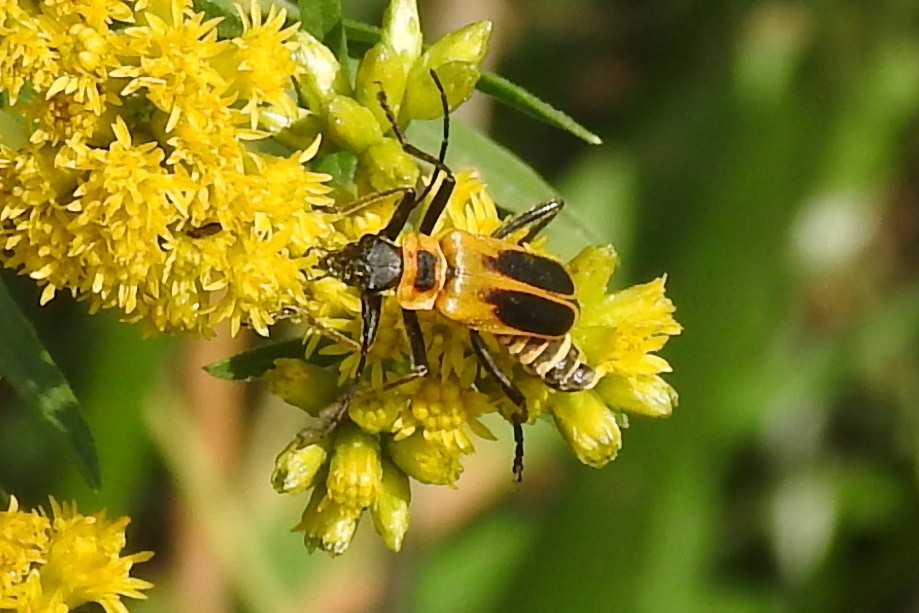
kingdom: Animalia
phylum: Arthropoda
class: Insecta
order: Coleoptera
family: Cantharidae
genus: Chauliognathus
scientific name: Chauliognathus pensylvanicus
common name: Goldenrod soldier beetle
